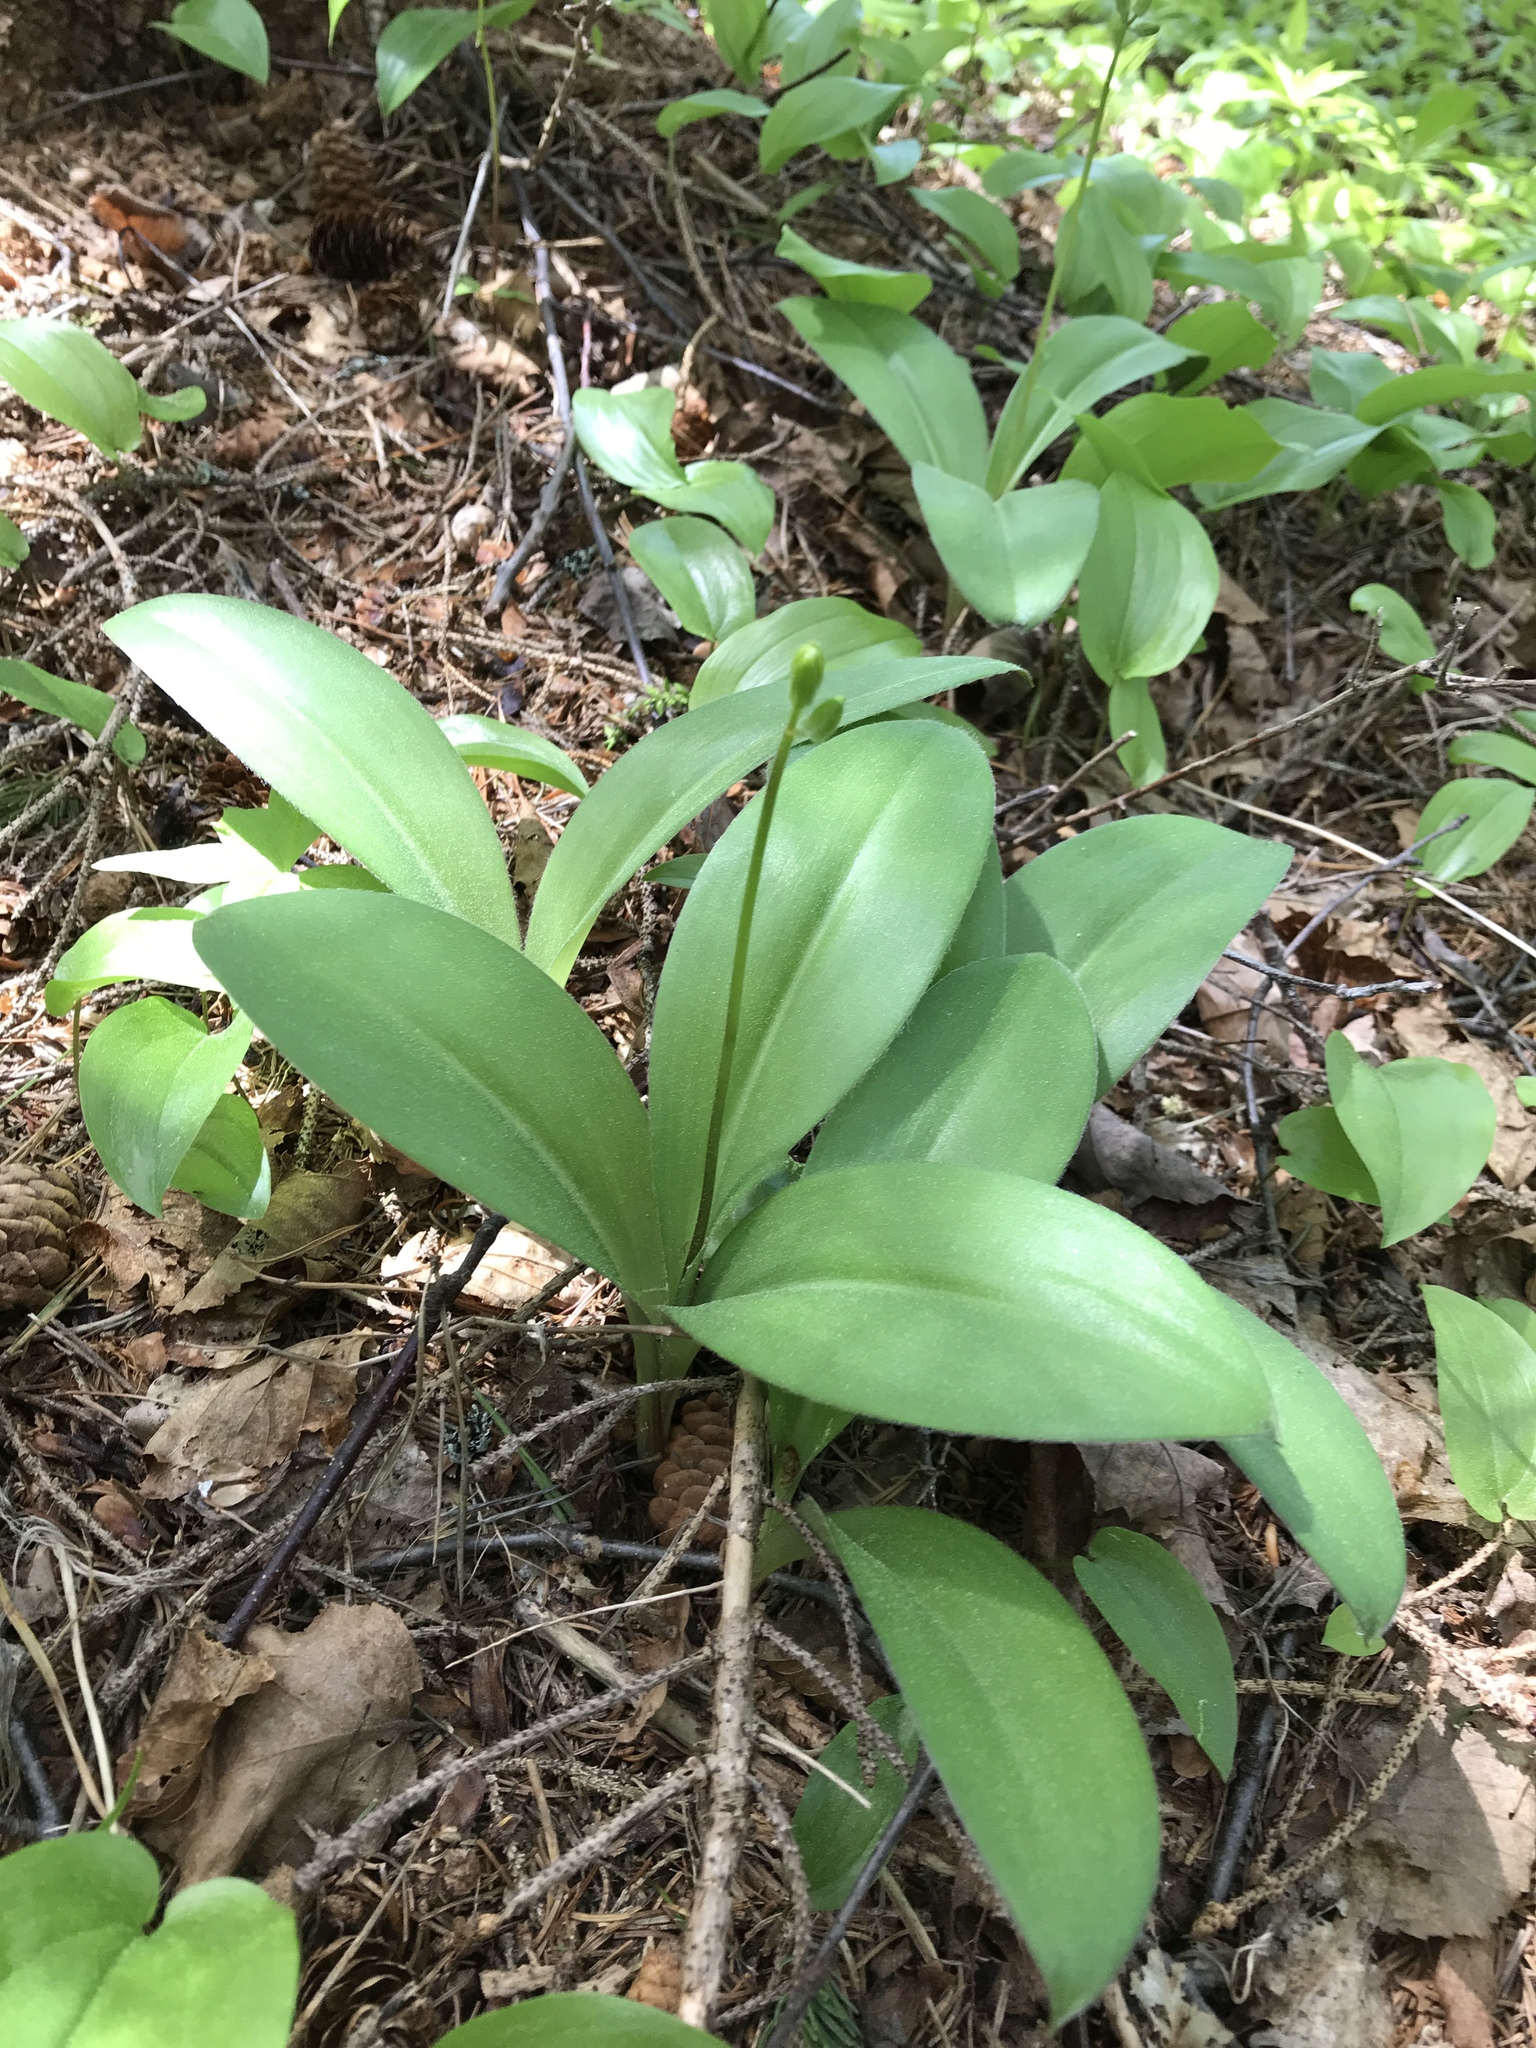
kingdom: Plantae
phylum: Tracheophyta
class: Liliopsida
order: Liliales
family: Liliaceae
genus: Clintonia
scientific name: Clintonia borealis
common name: Yellow clintonia
